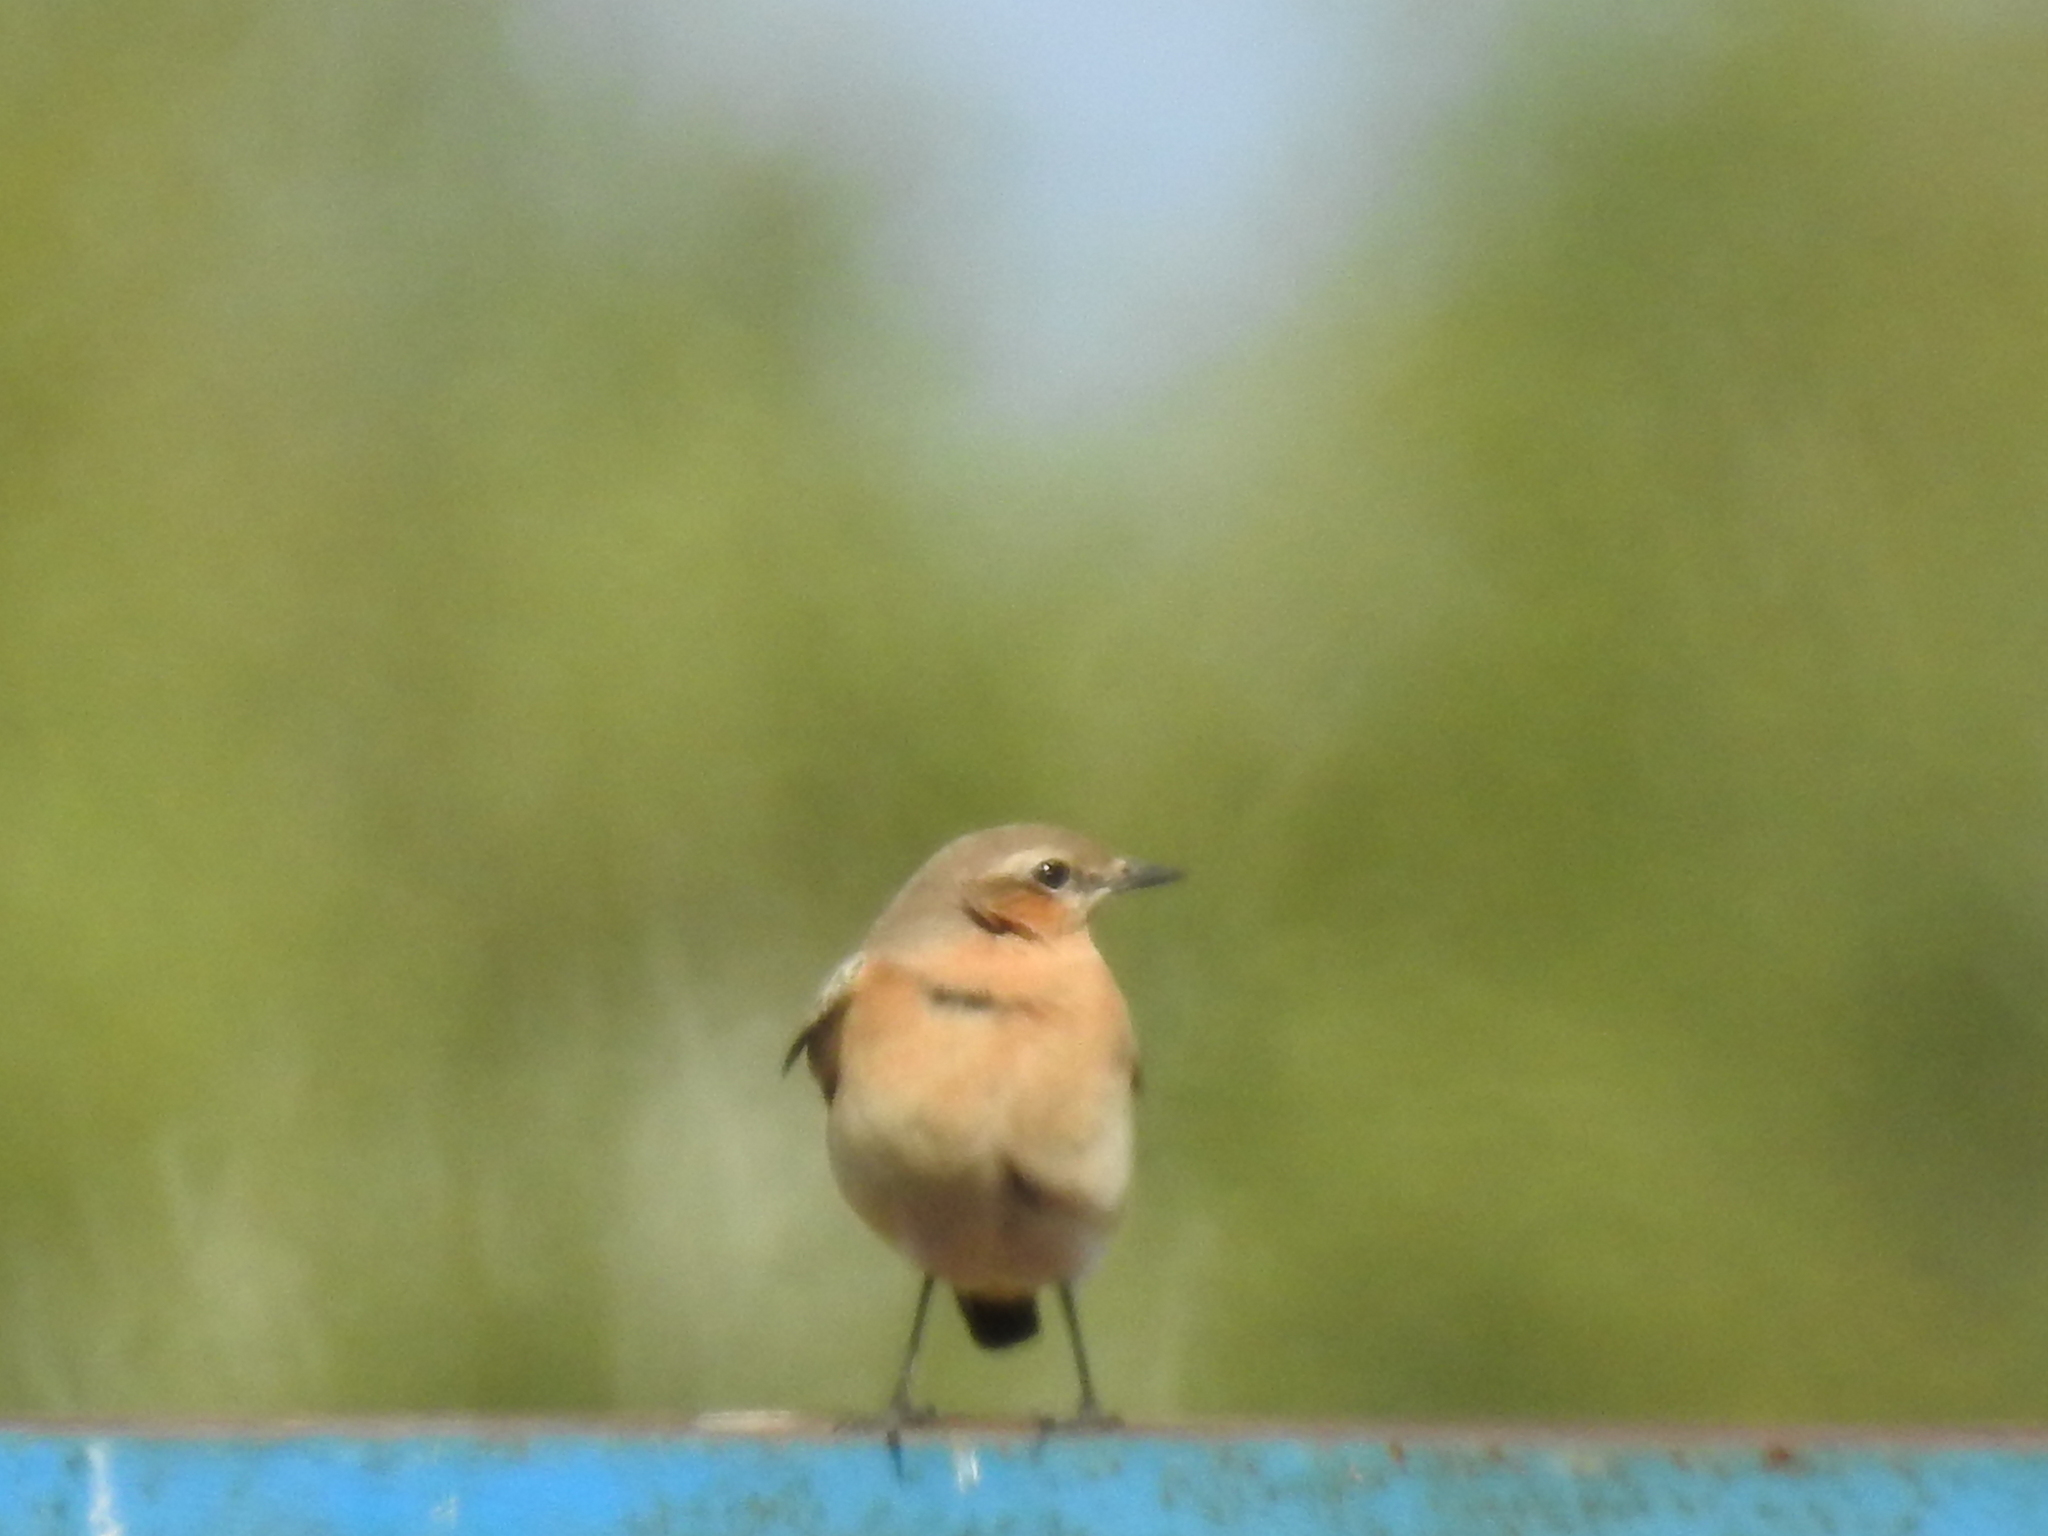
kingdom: Animalia
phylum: Chordata
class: Aves
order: Passeriformes
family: Muscicapidae
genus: Oenanthe
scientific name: Oenanthe oenanthe
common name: Northern wheatear
